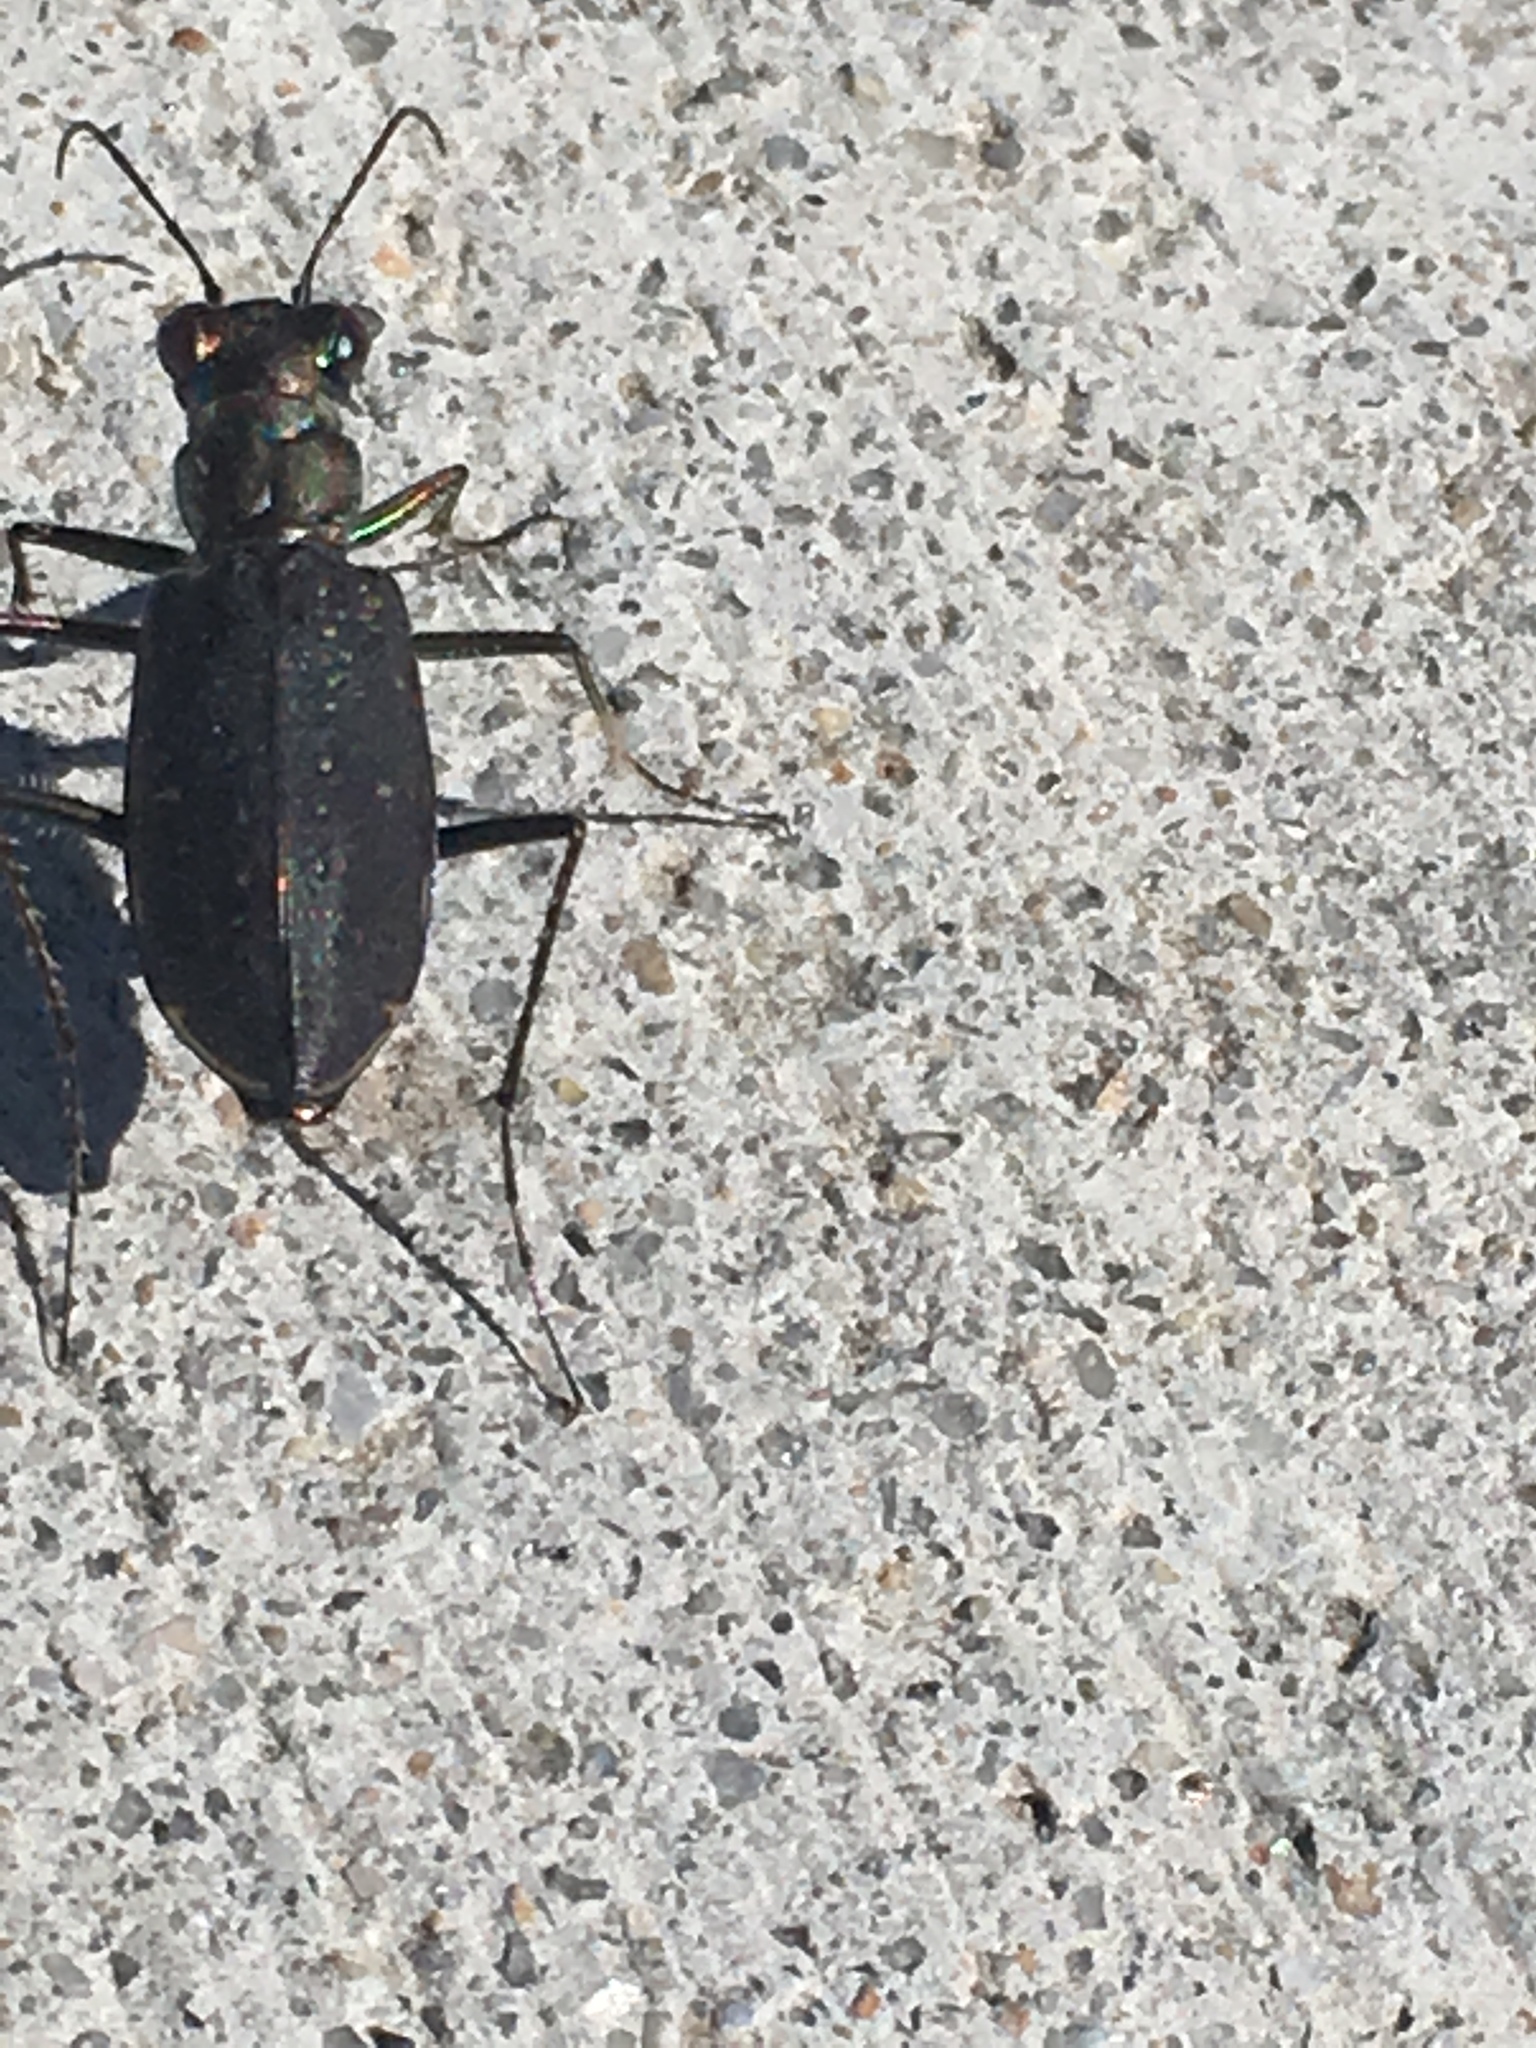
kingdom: Animalia
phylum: Arthropoda
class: Insecta
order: Coleoptera
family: Carabidae
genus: Cicindela
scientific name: Cicindela punctulata
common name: Punctured tiger beetle
